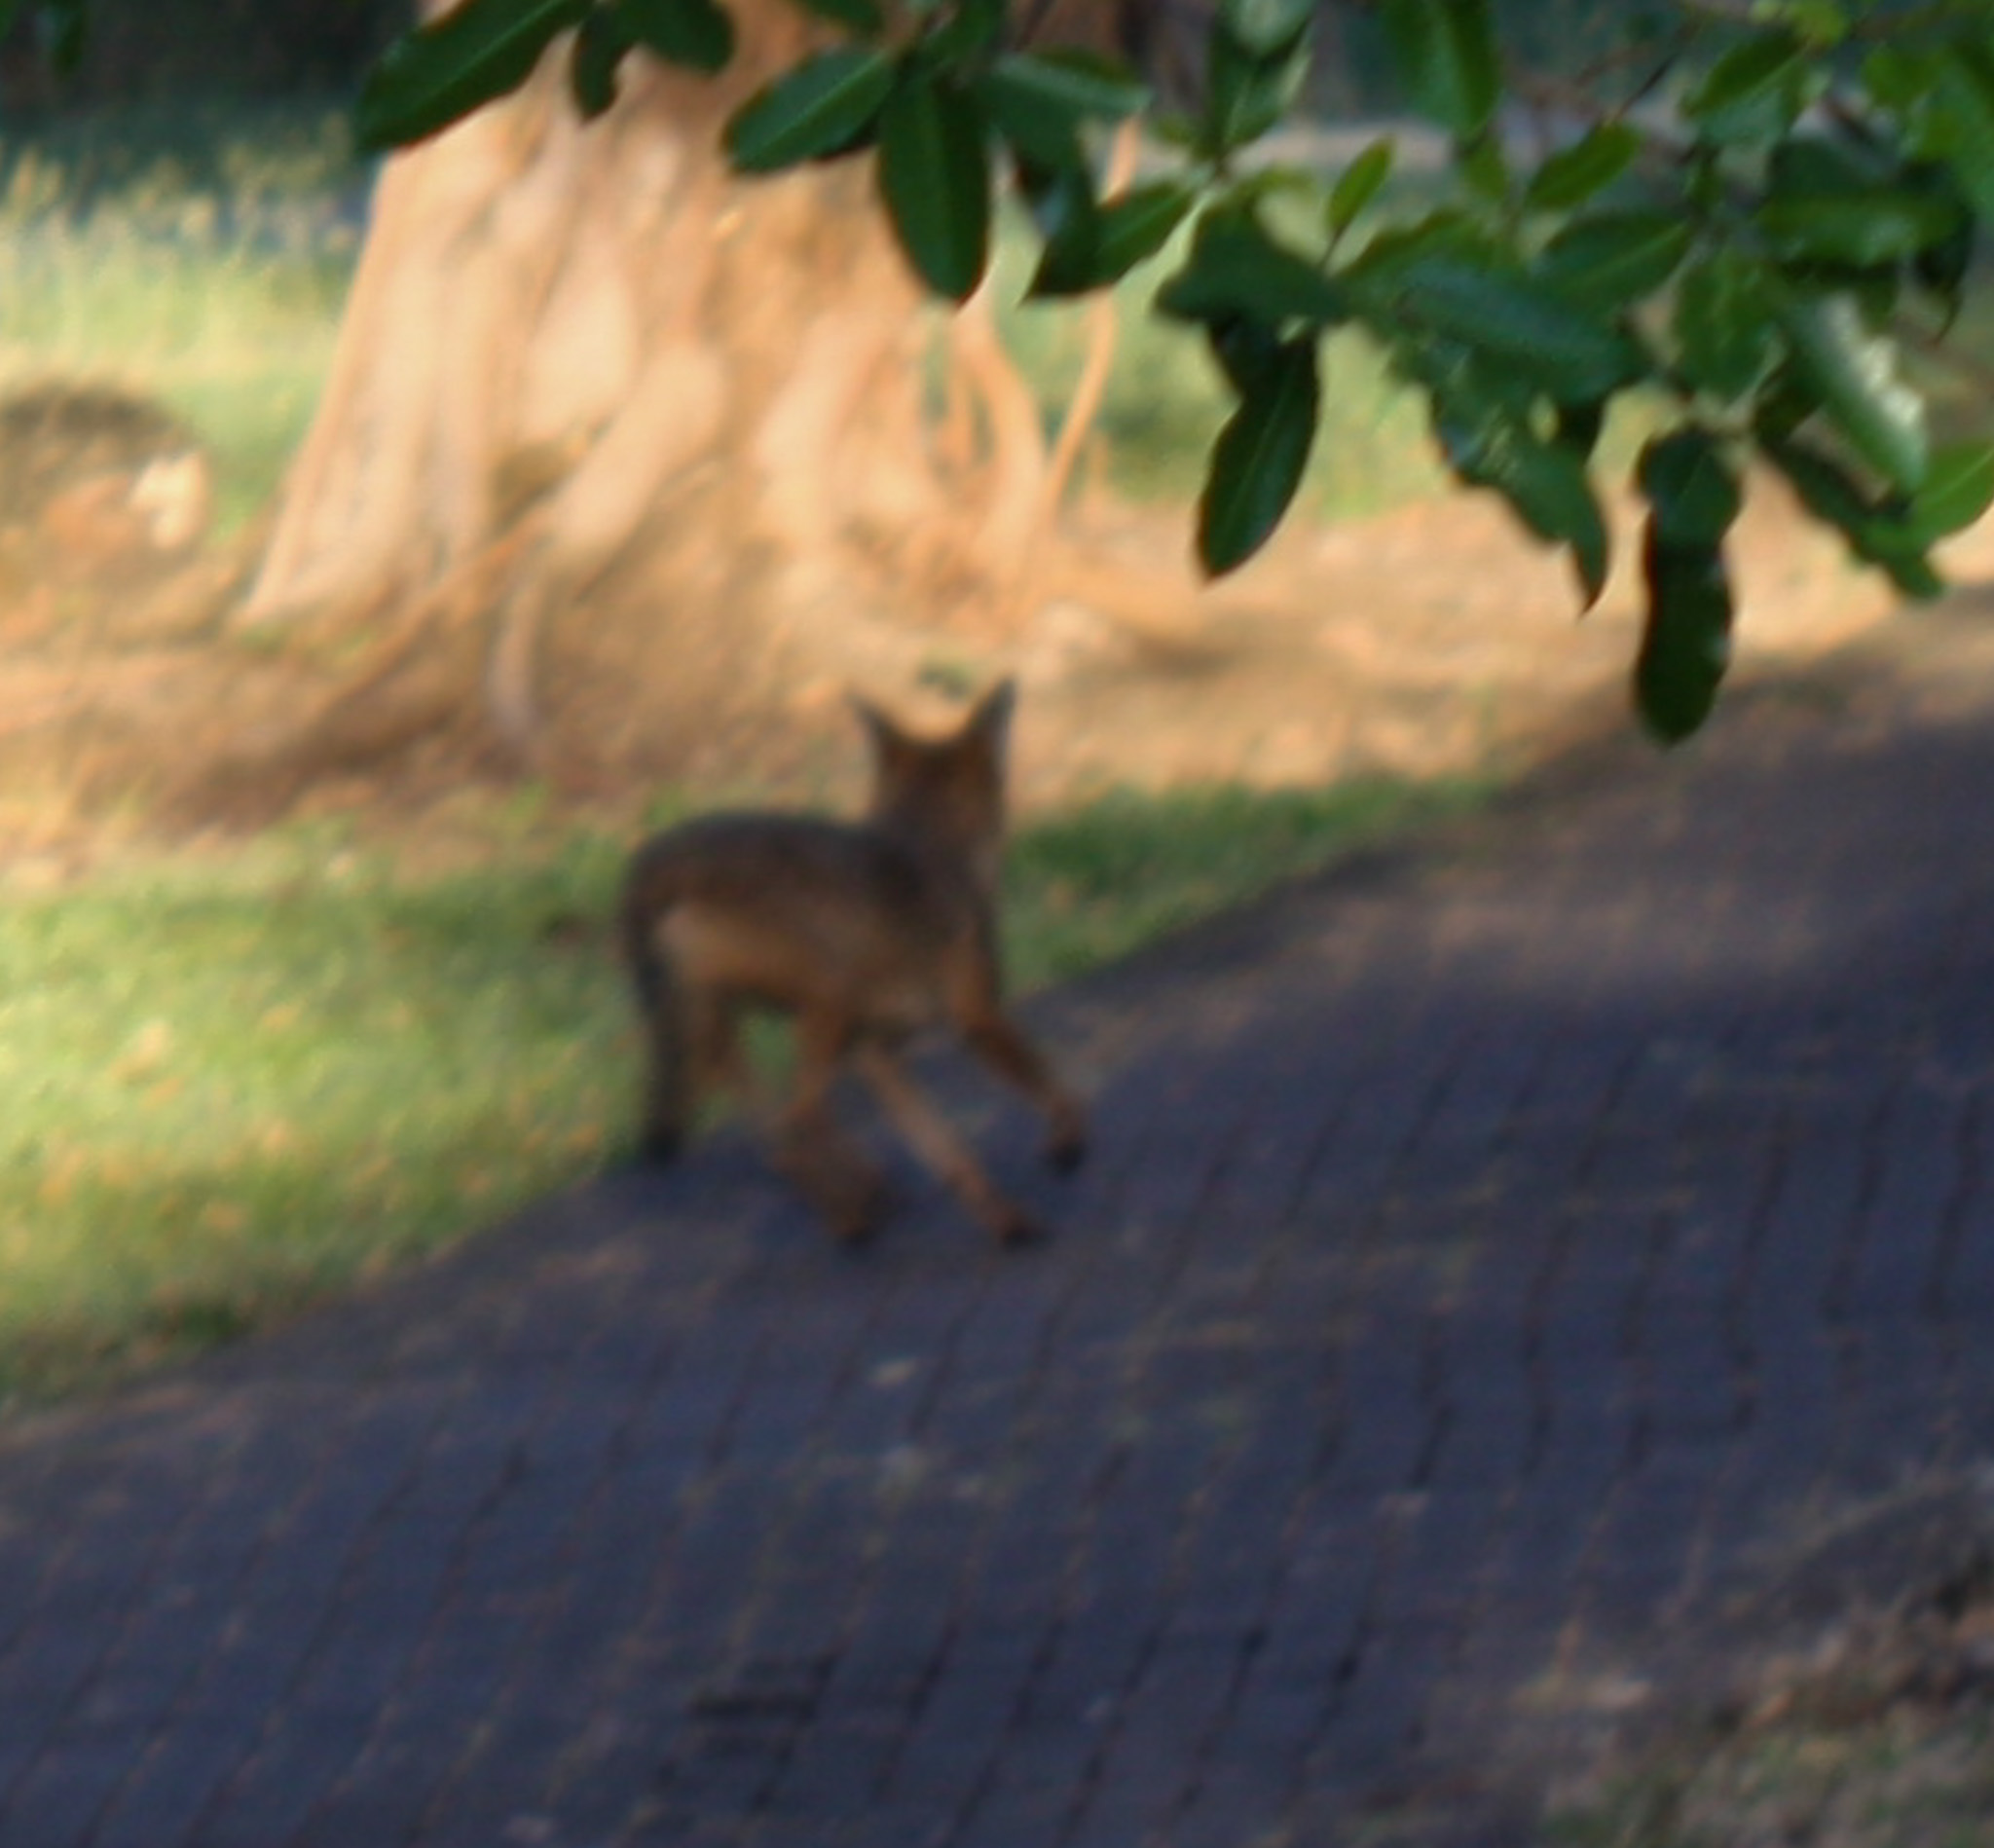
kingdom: Animalia
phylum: Chordata
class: Mammalia
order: Carnivora
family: Canidae
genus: Canis
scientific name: Canis latrans
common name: Coyote
